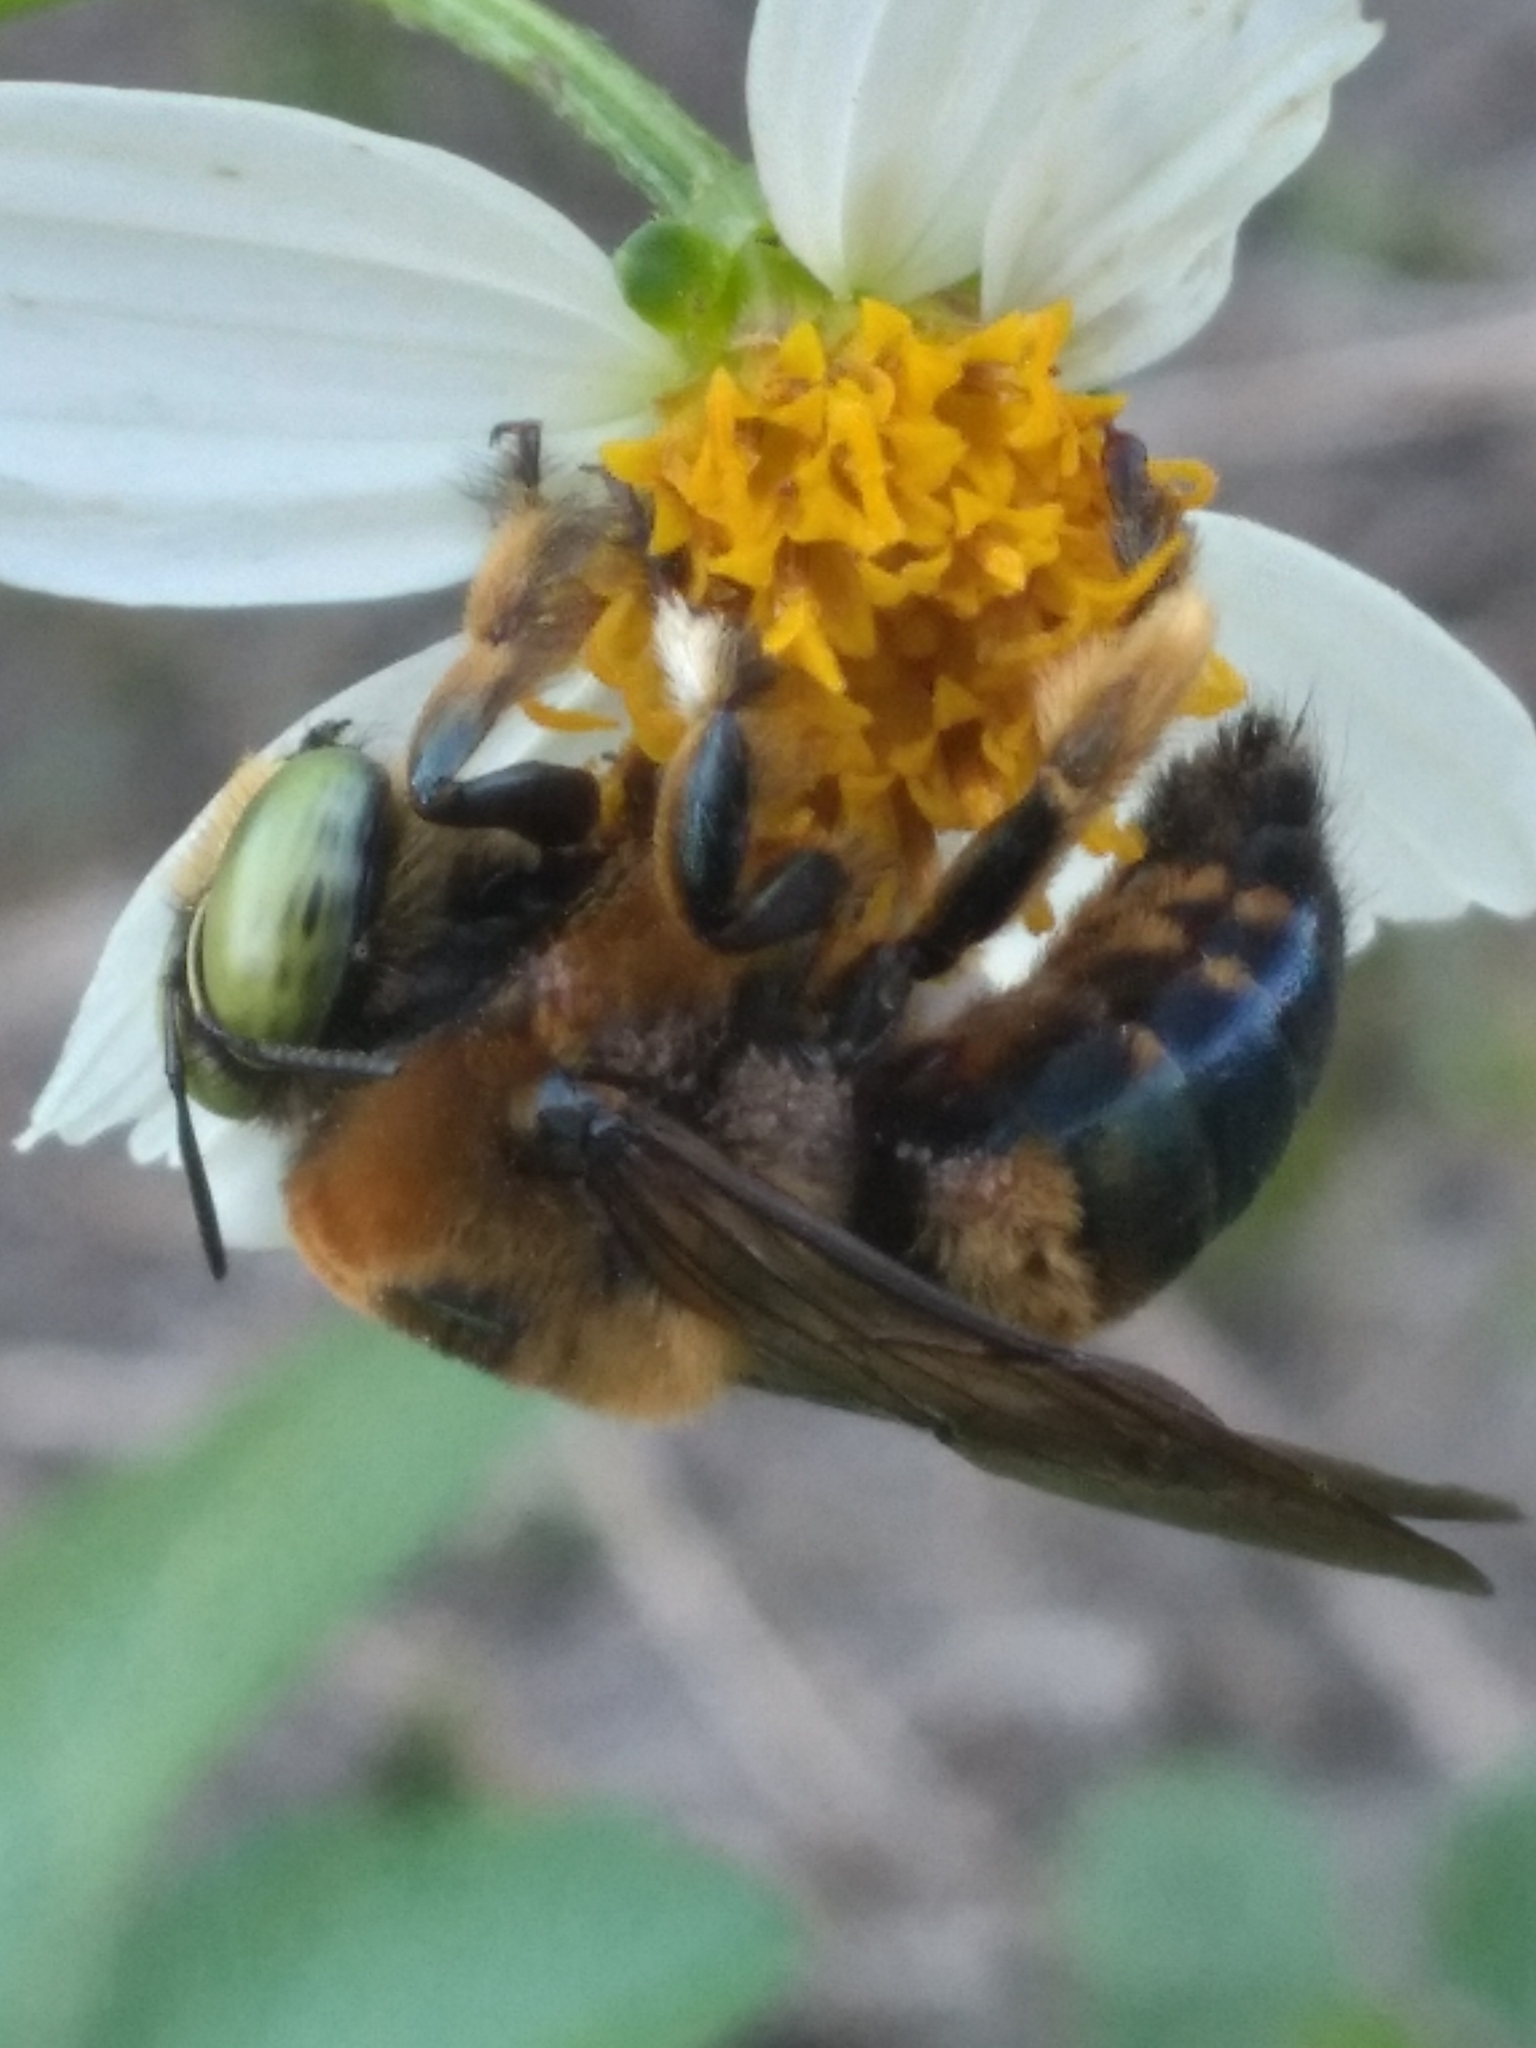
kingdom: Animalia
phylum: Arthropoda
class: Insecta
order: Hymenoptera
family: Apidae
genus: Xylocopa
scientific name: Xylocopa micans
